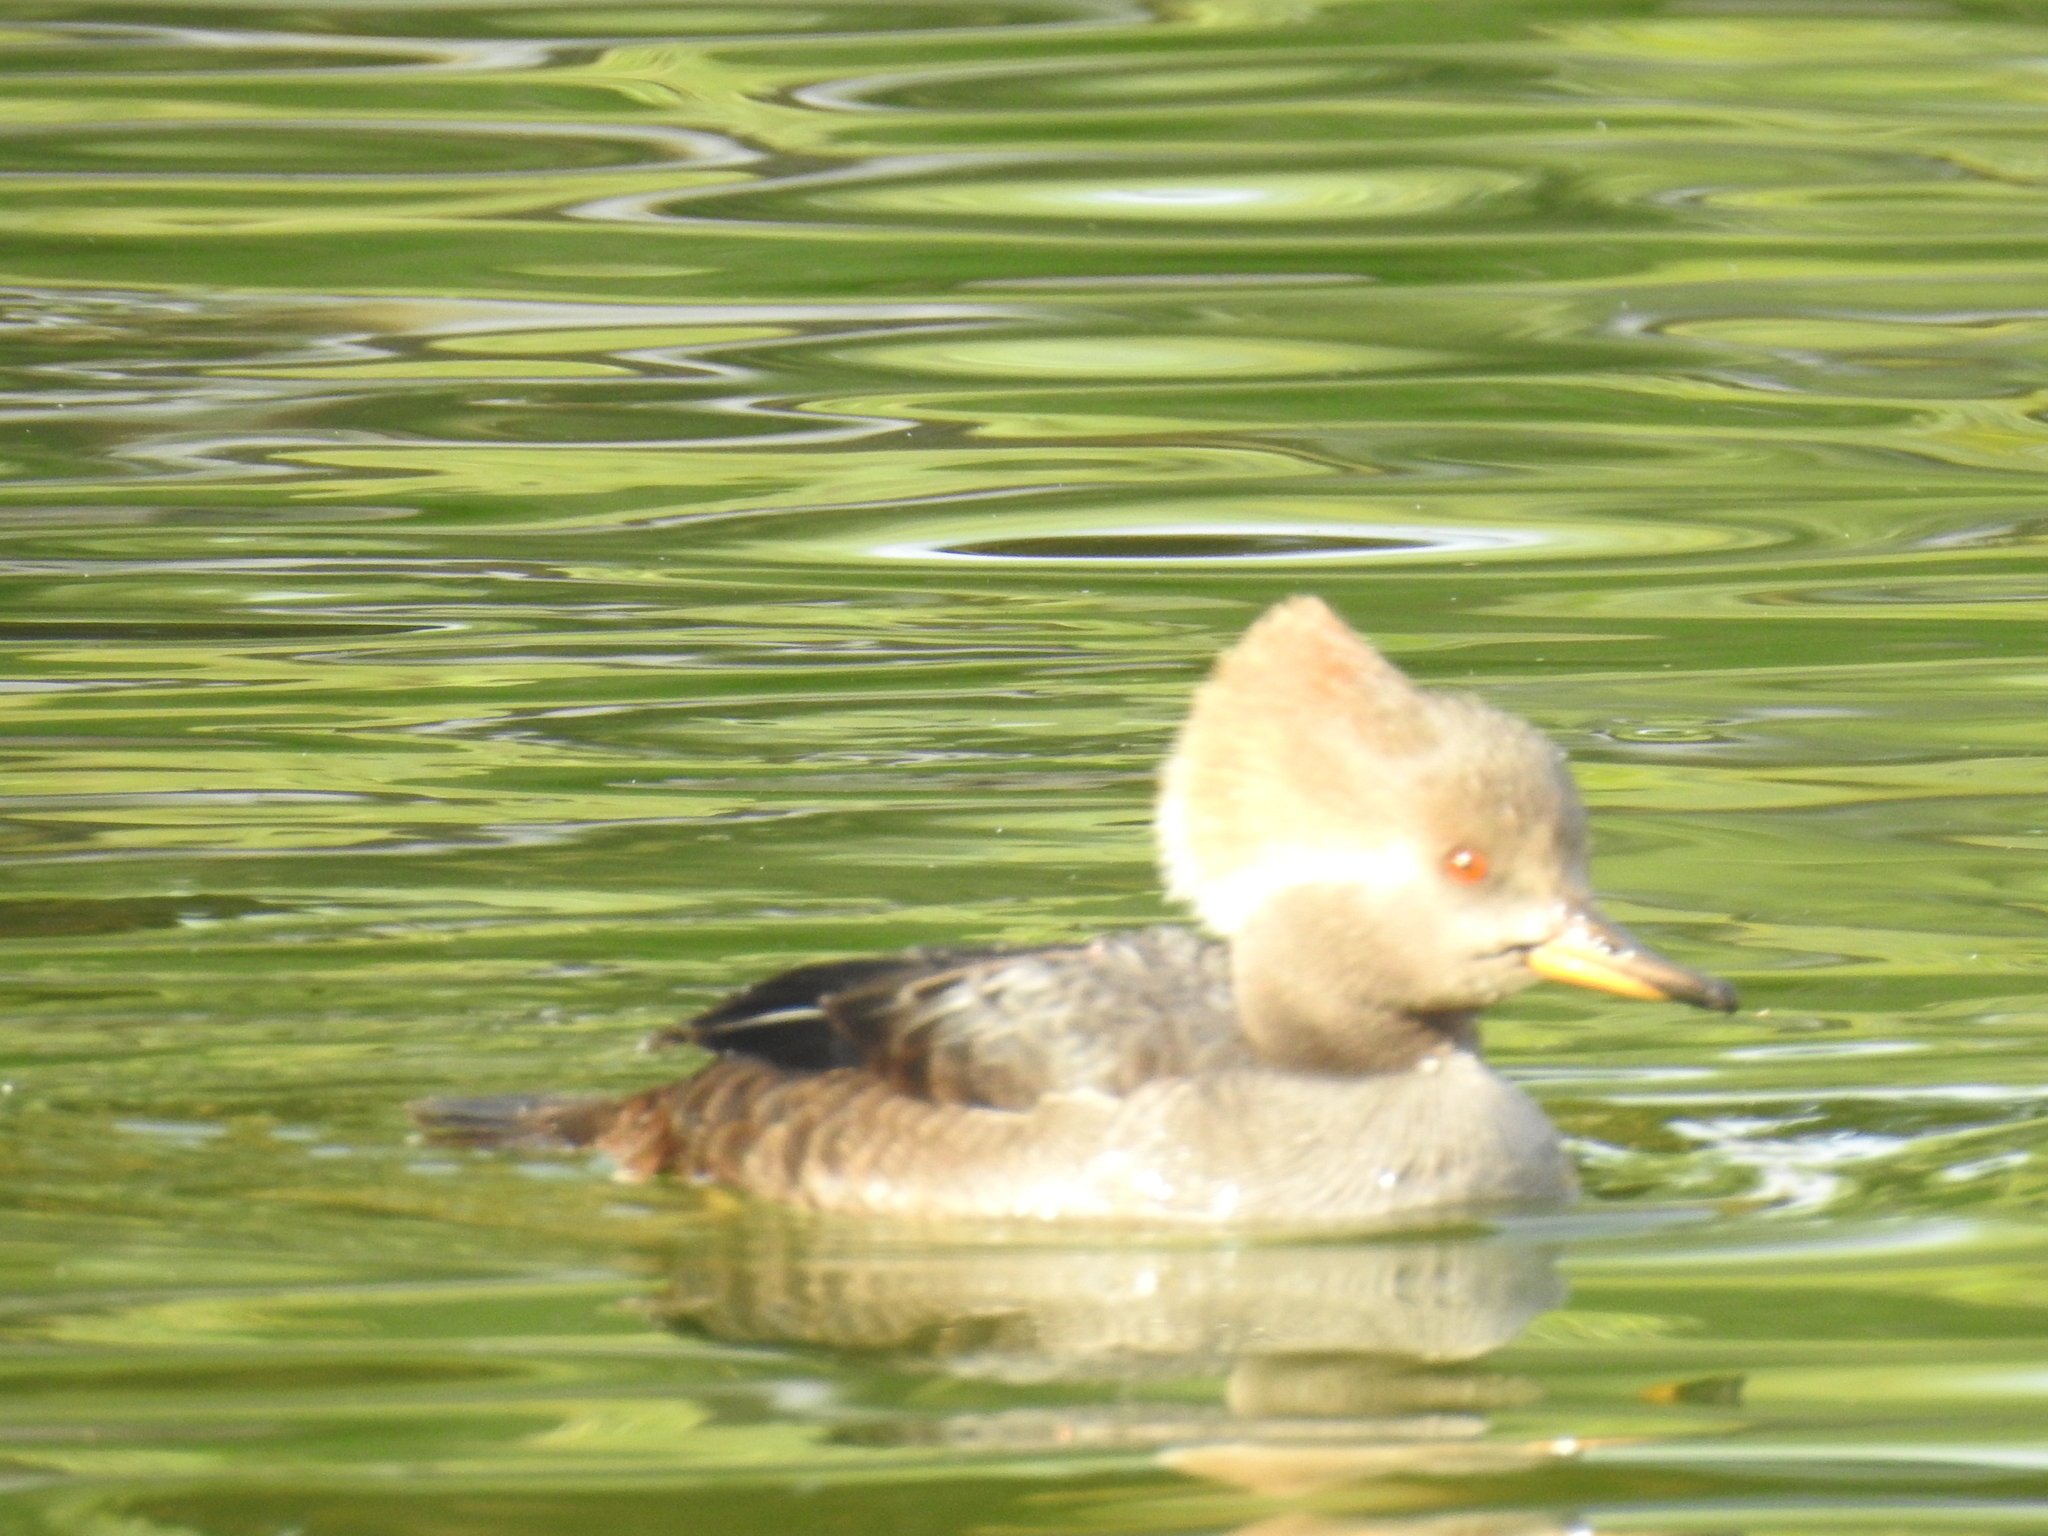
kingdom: Animalia
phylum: Chordata
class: Aves
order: Anseriformes
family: Anatidae
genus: Lophodytes
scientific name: Lophodytes cucullatus
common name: Hooded merganser
